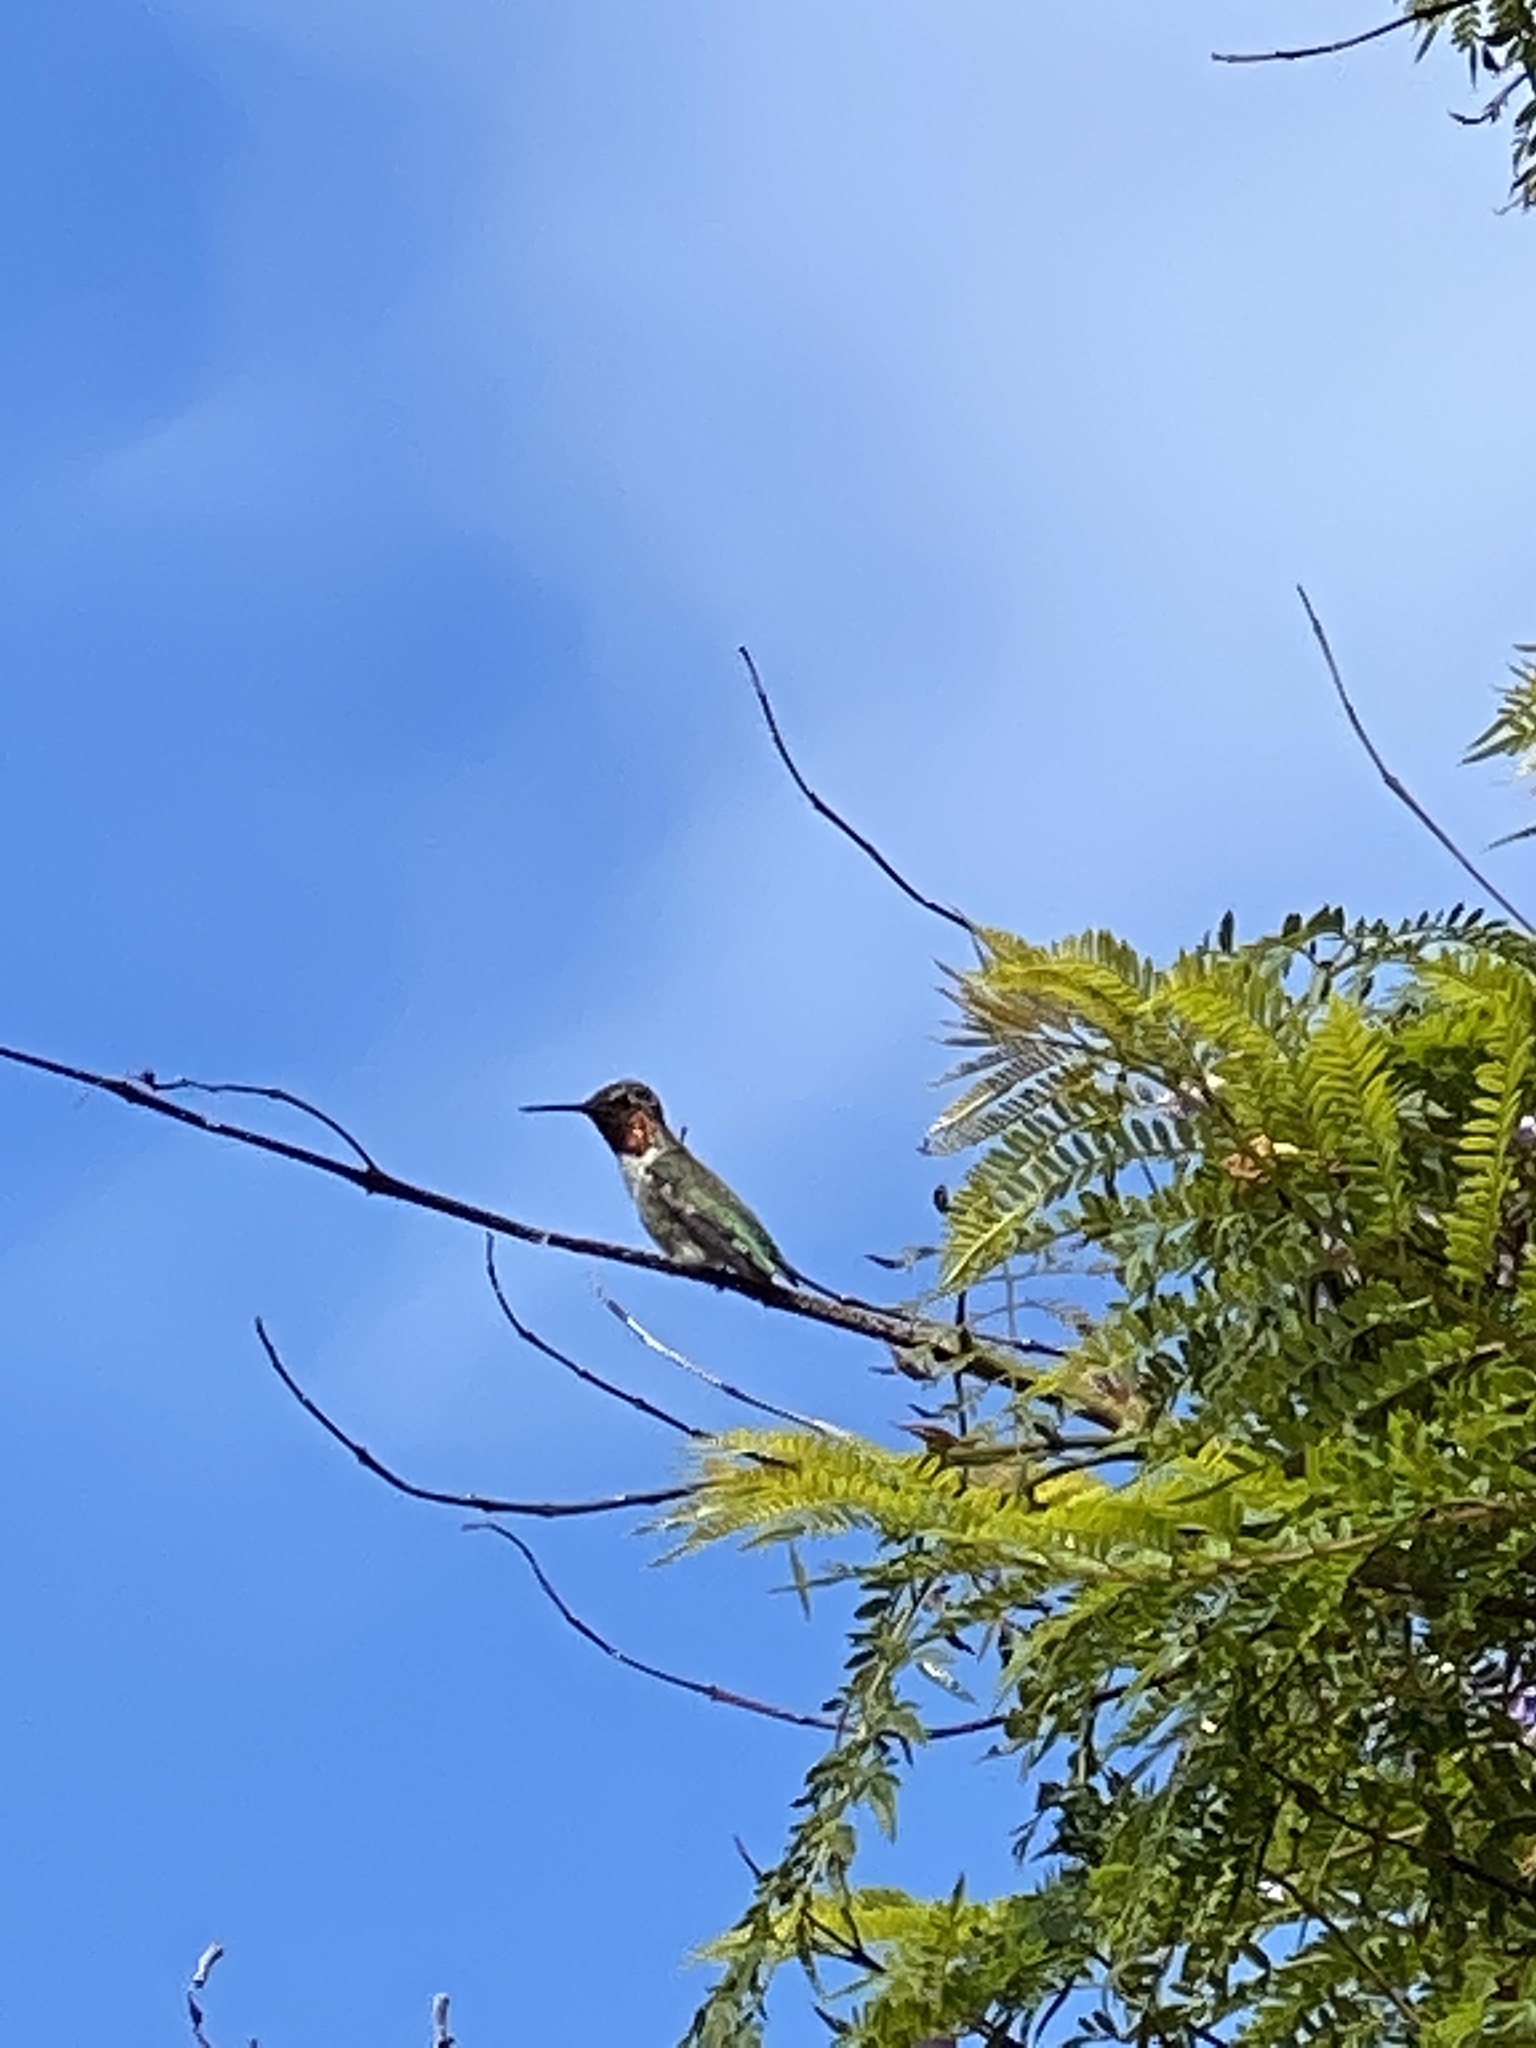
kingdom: Animalia
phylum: Chordata
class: Aves
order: Apodiformes
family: Trochilidae
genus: Calypte
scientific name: Calypte anna
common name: Anna's hummingbird
